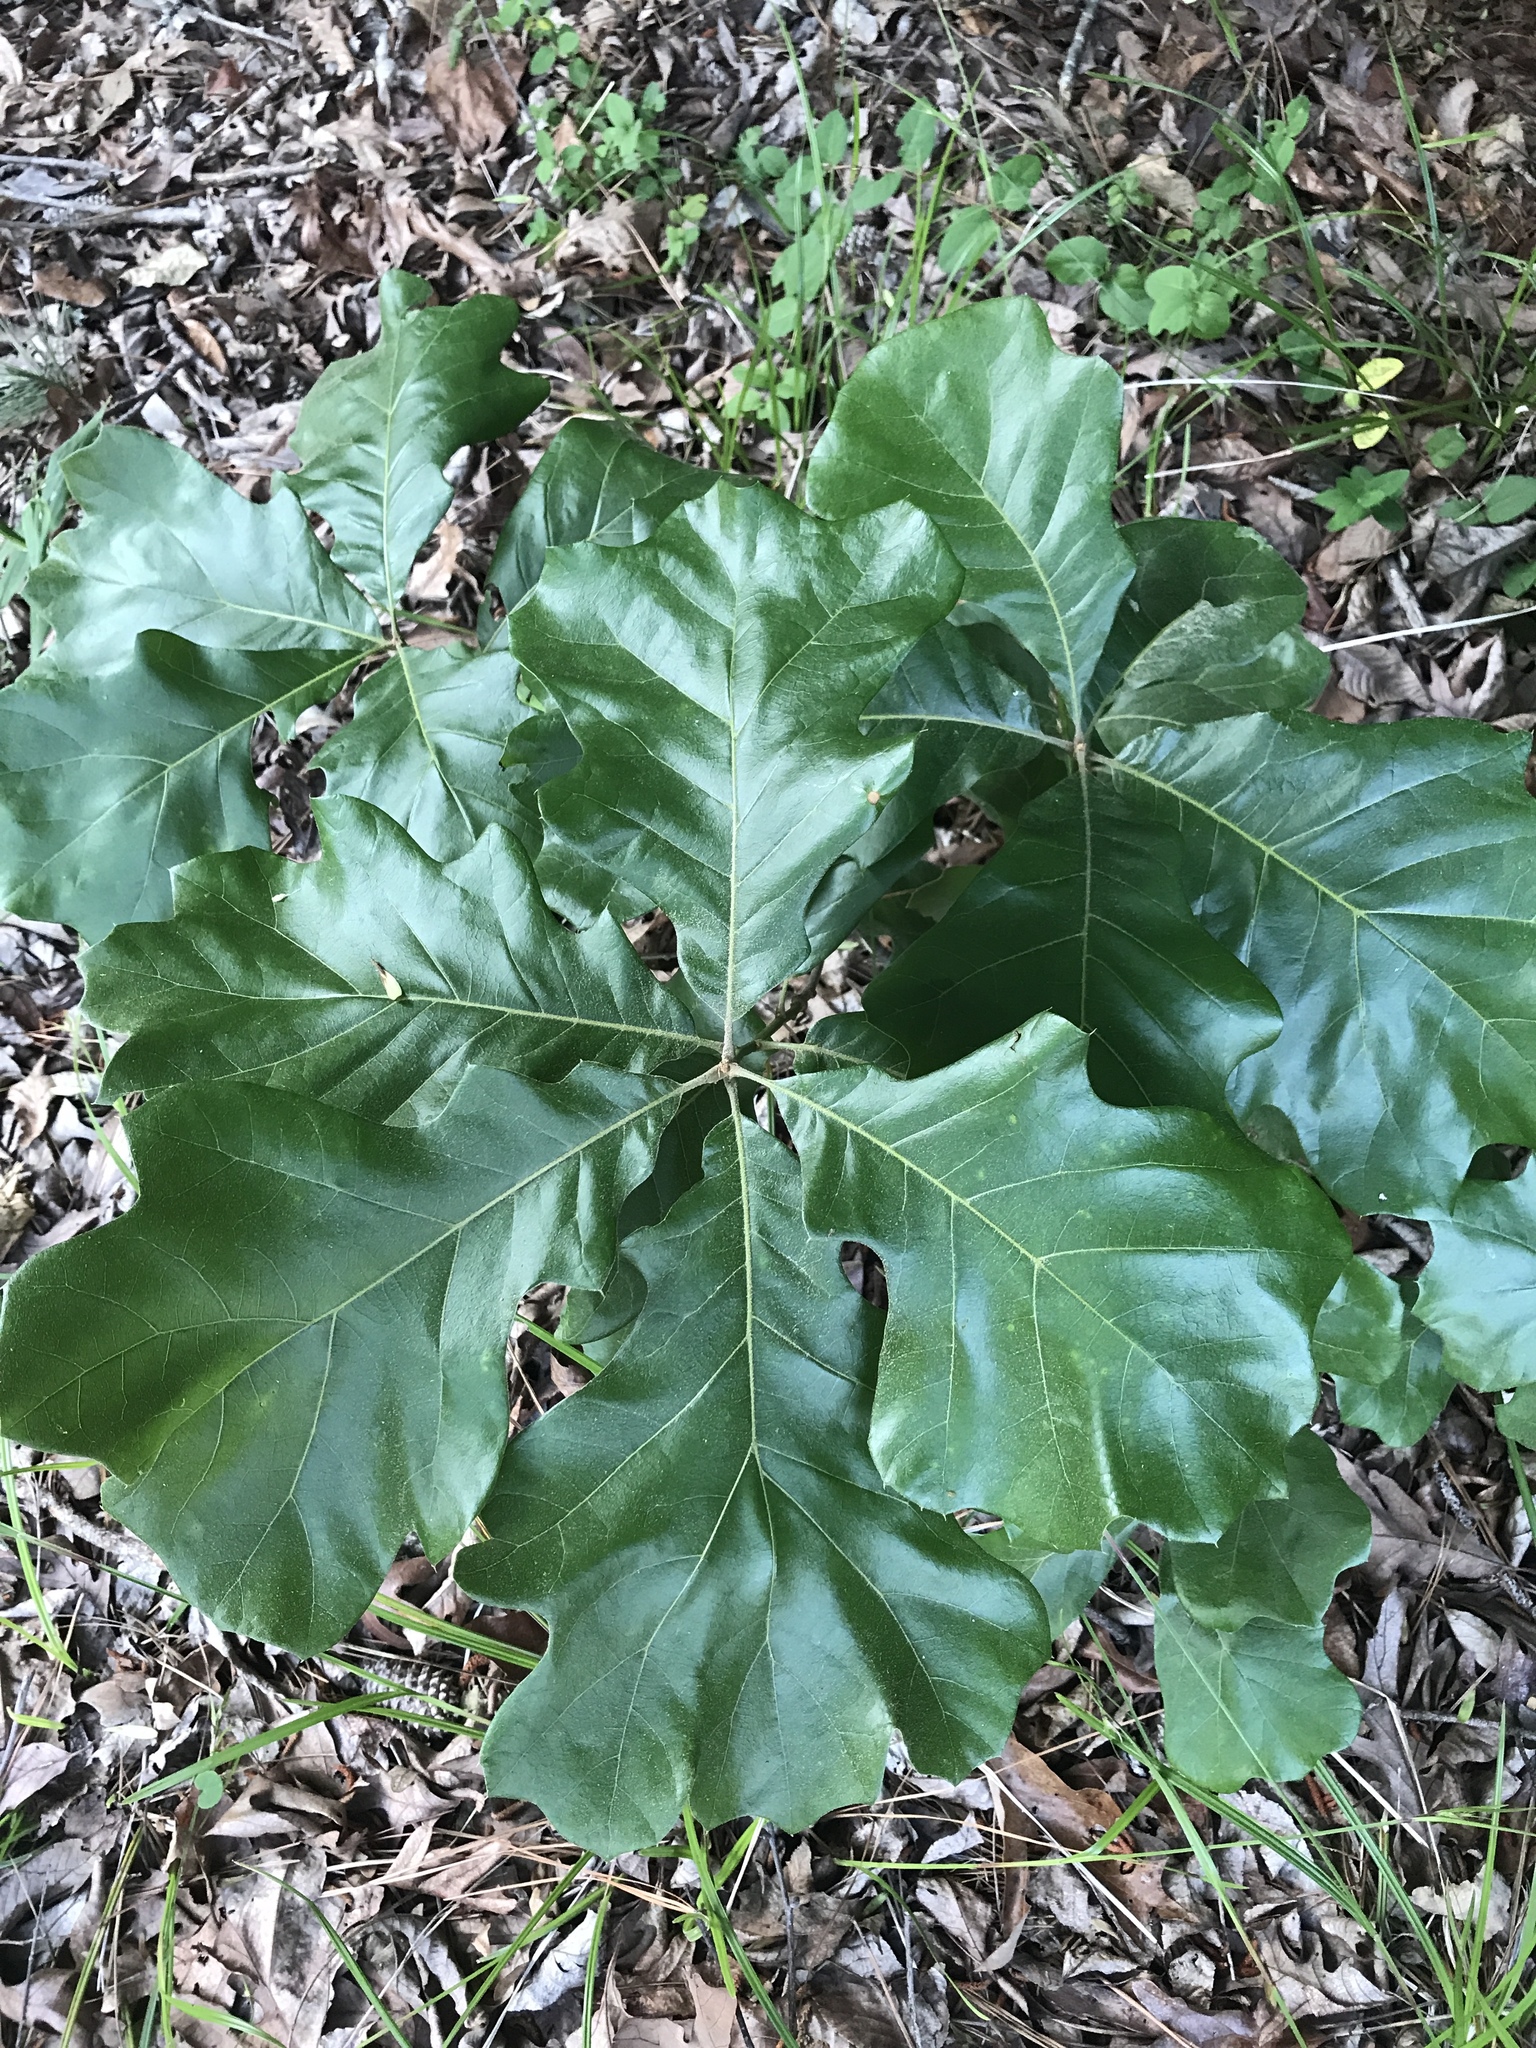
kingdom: Plantae
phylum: Tracheophyta
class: Magnoliopsida
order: Fagales
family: Fagaceae
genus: Quercus
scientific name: Quercus marilandica
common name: Blackjack oak
